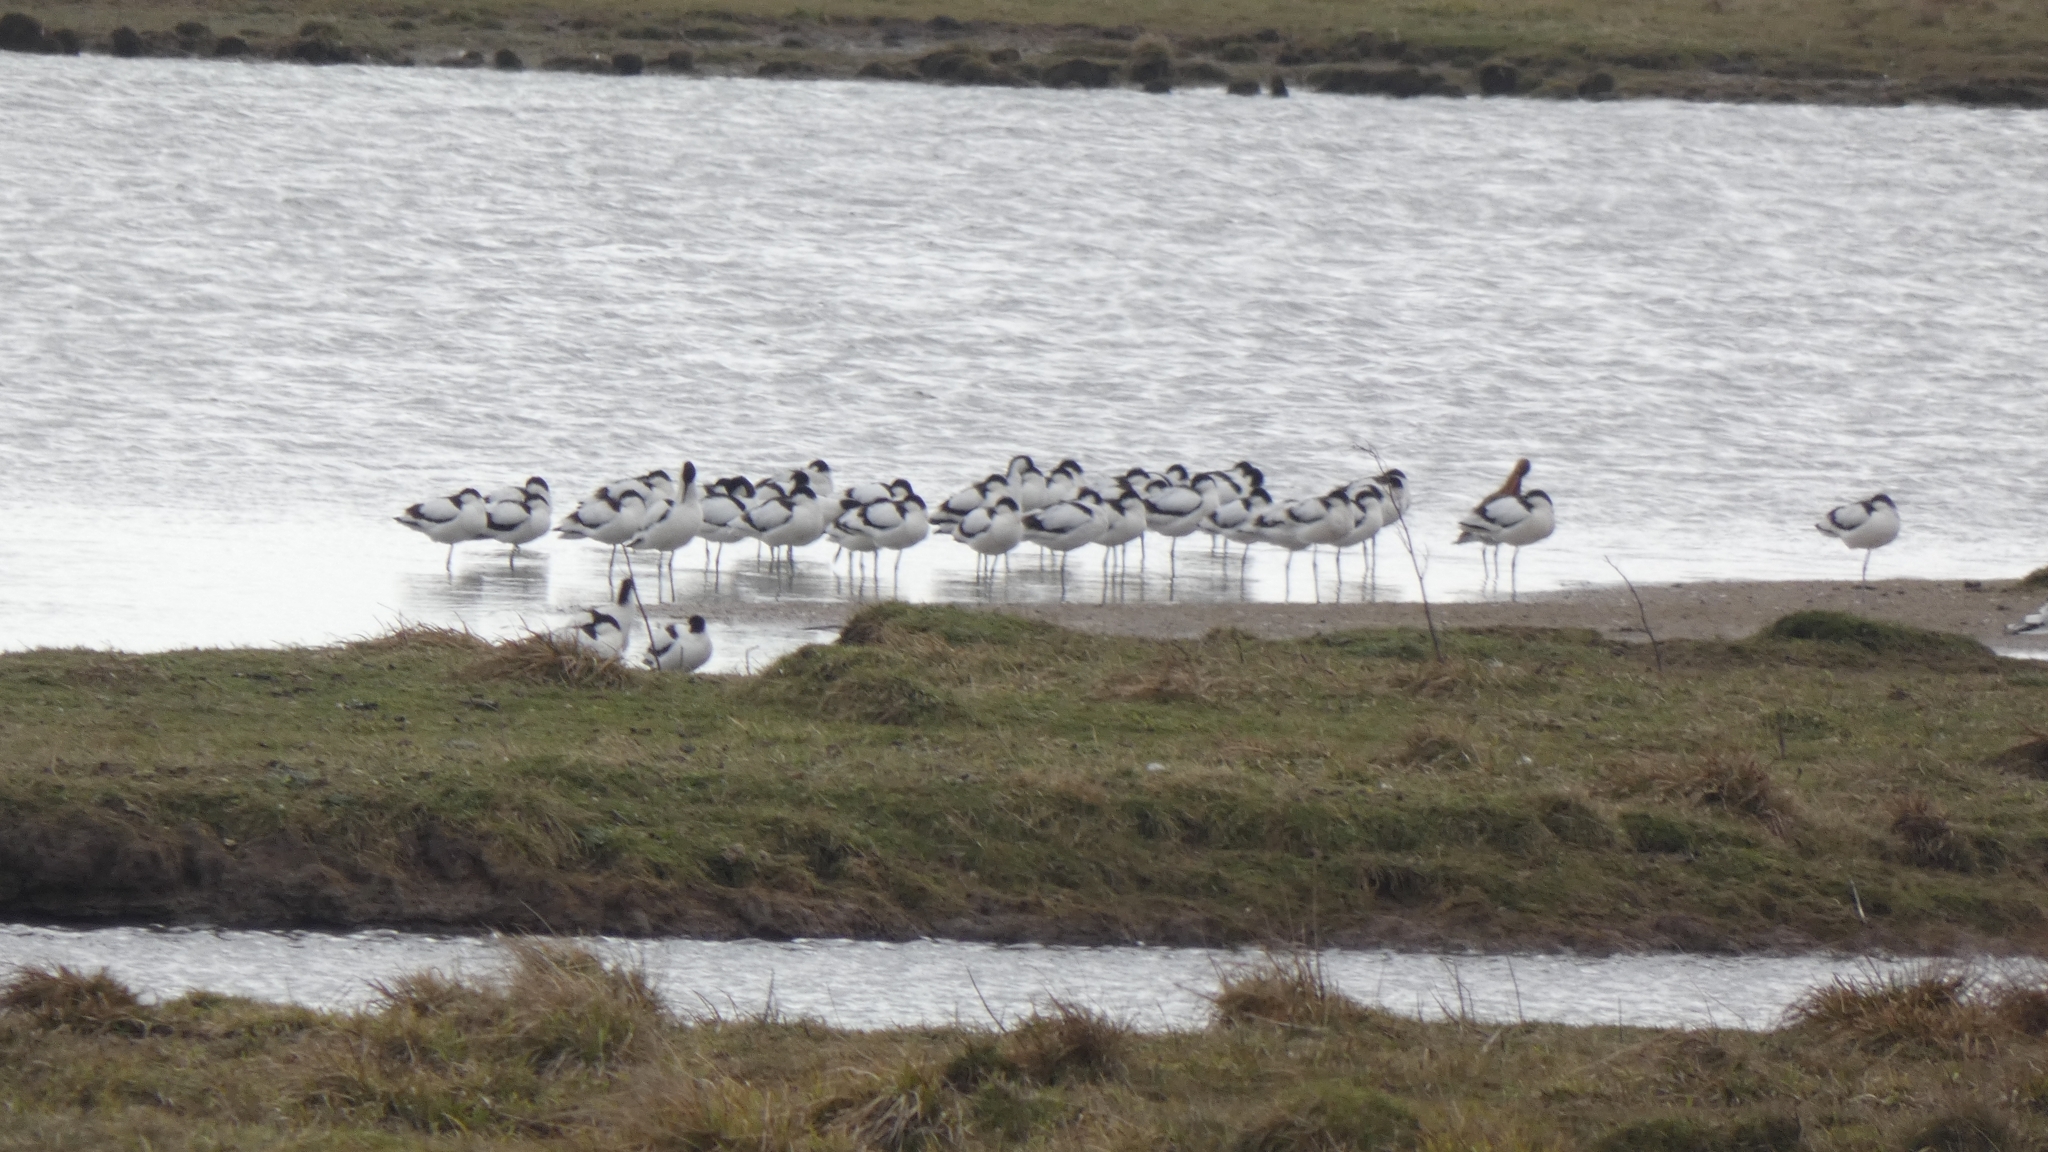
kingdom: Animalia
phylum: Chordata
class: Aves
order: Charadriiformes
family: Recurvirostridae
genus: Recurvirostra
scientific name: Recurvirostra avosetta
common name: Pied avocet
